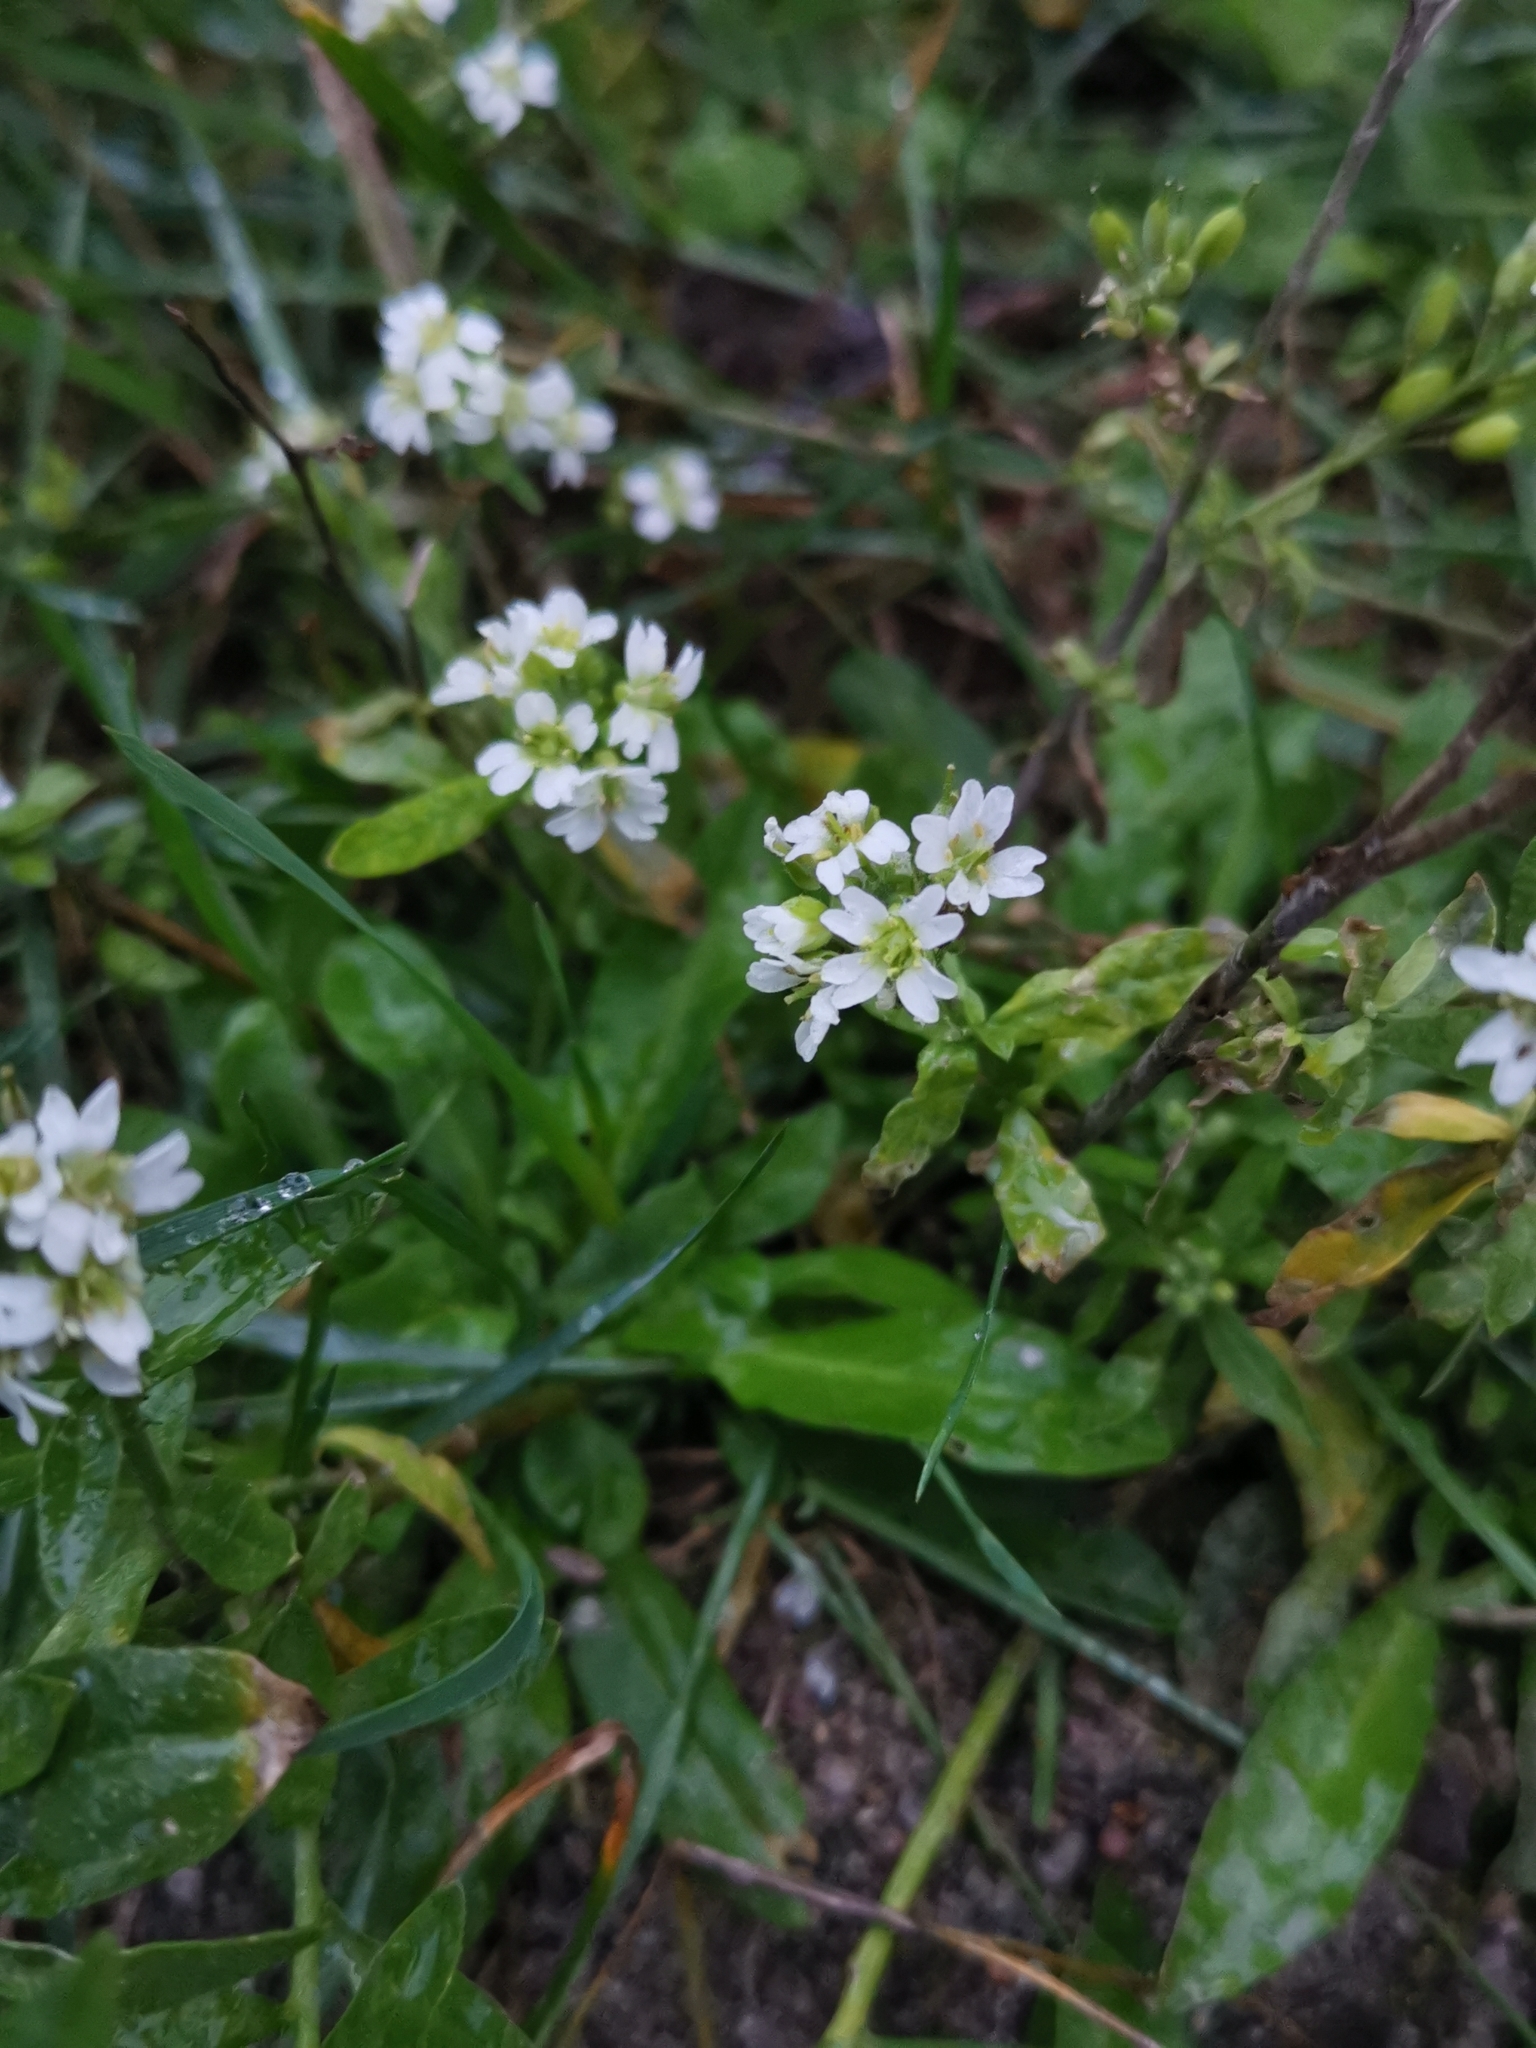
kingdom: Plantae
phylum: Tracheophyta
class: Magnoliopsida
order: Brassicales
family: Brassicaceae
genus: Berteroa
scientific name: Berteroa incana
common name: Hoary alison
